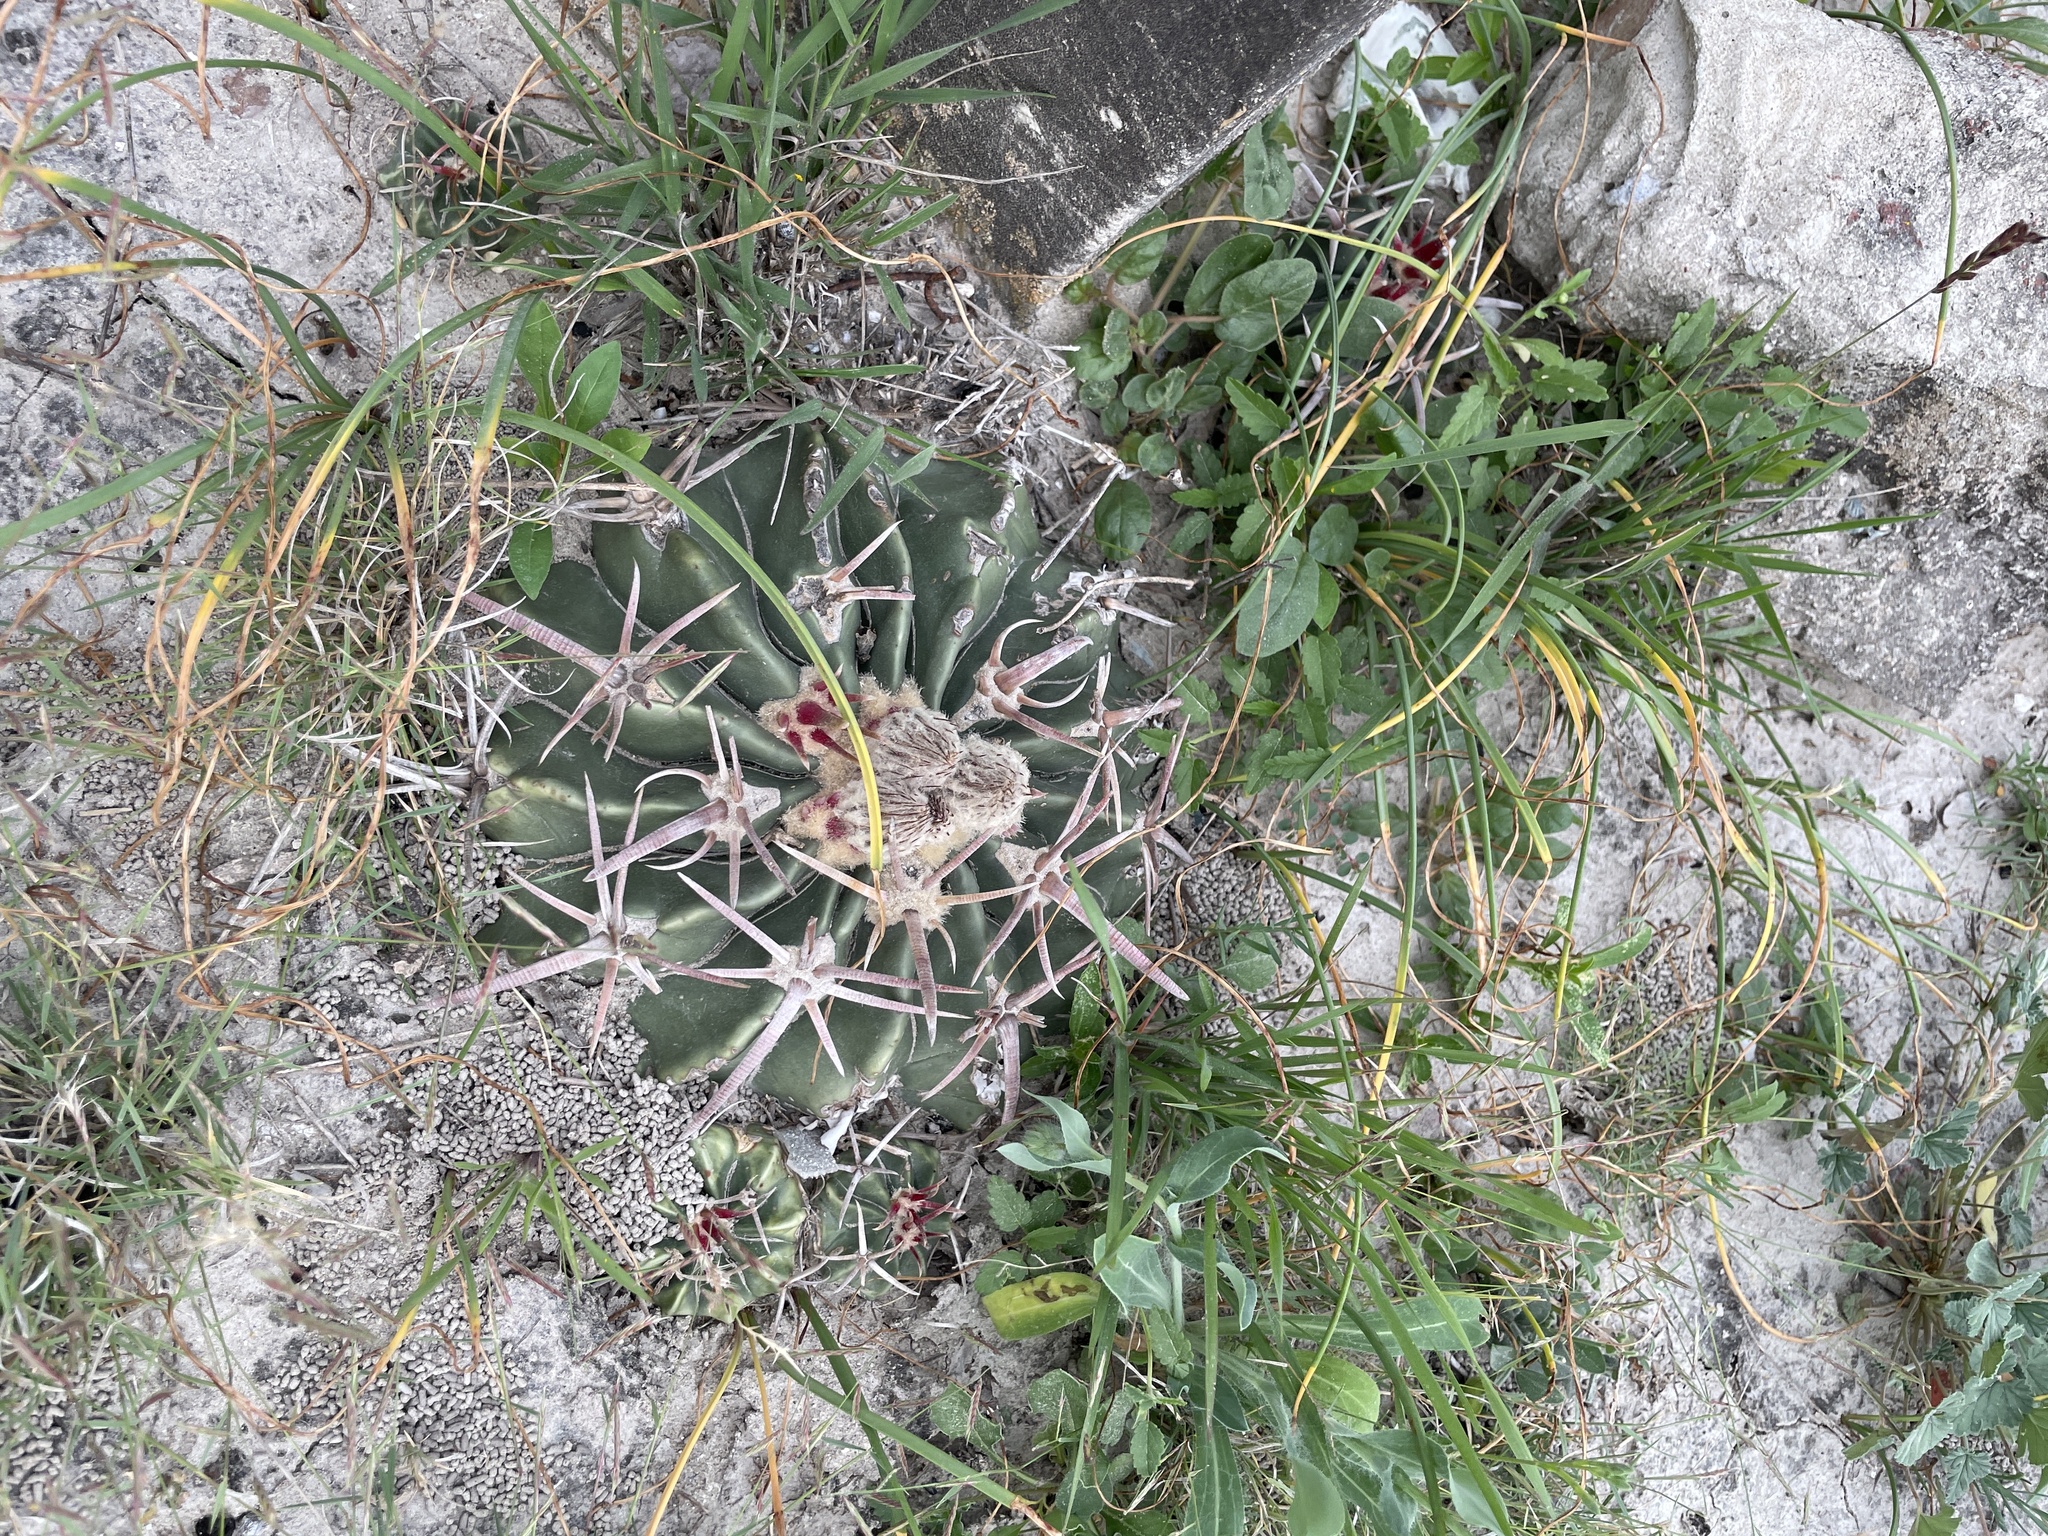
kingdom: Plantae
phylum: Tracheophyta
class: Magnoliopsida
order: Caryophyllales
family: Cactaceae
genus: Echinocactus
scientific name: Echinocactus texensis
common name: Devil's pincushion
